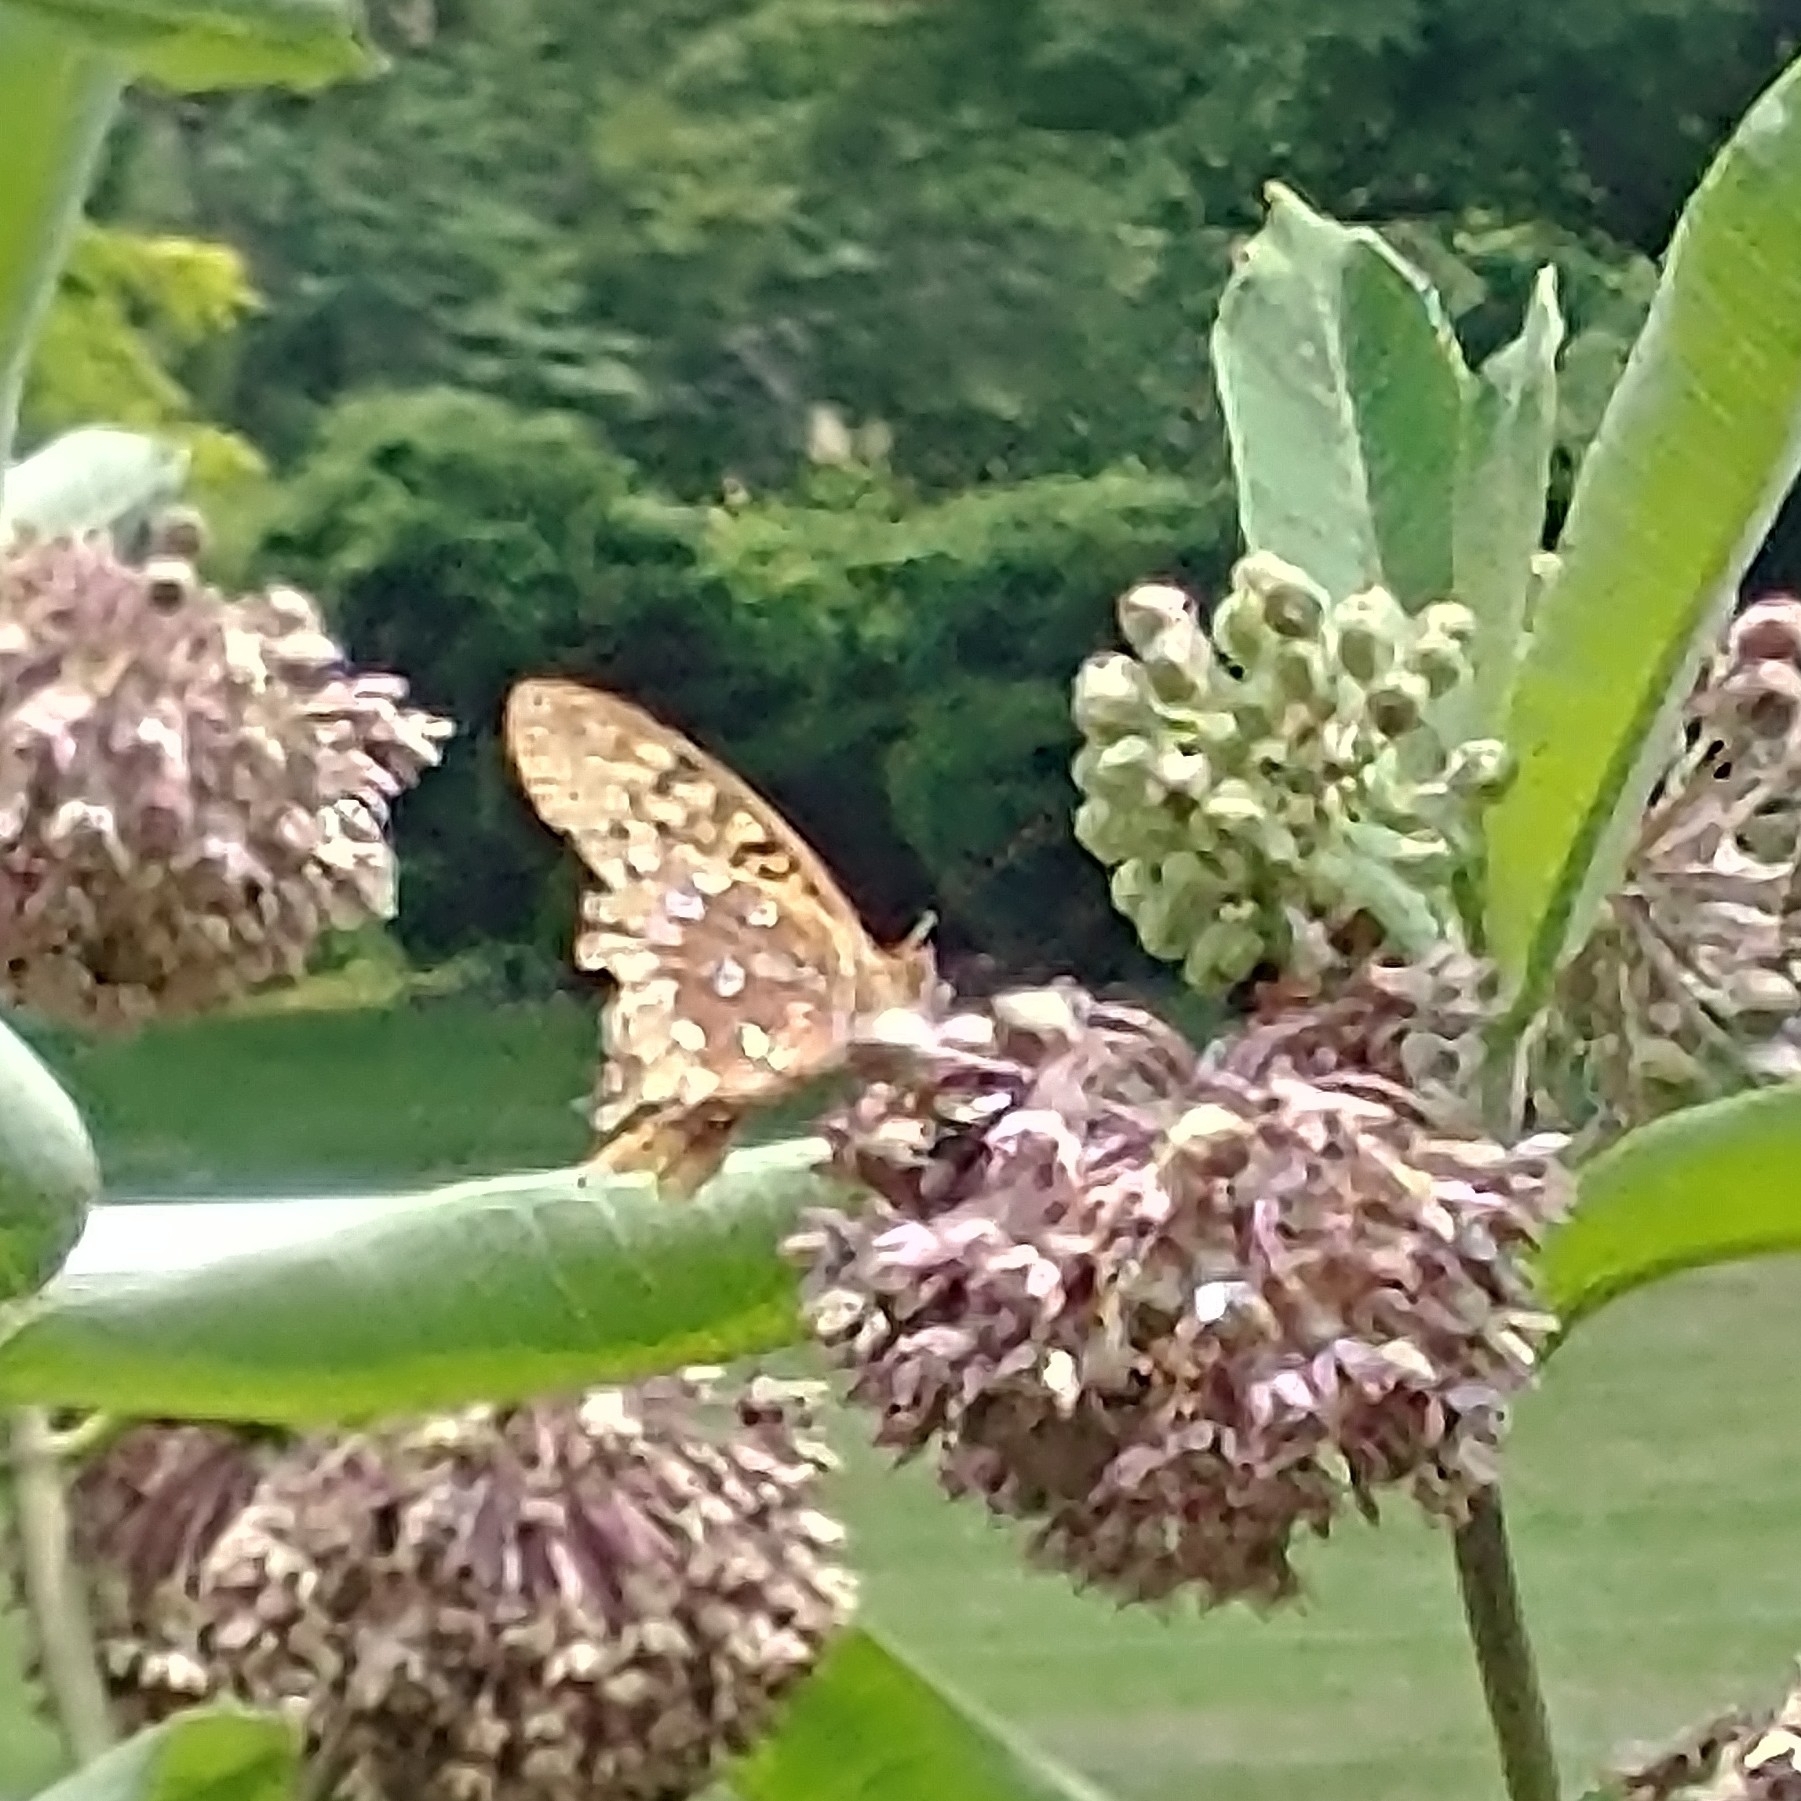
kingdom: Animalia
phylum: Arthropoda
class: Insecta
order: Lepidoptera
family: Nymphalidae
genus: Speyeria
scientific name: Speyeria cybele
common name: Great spangled fritillary
